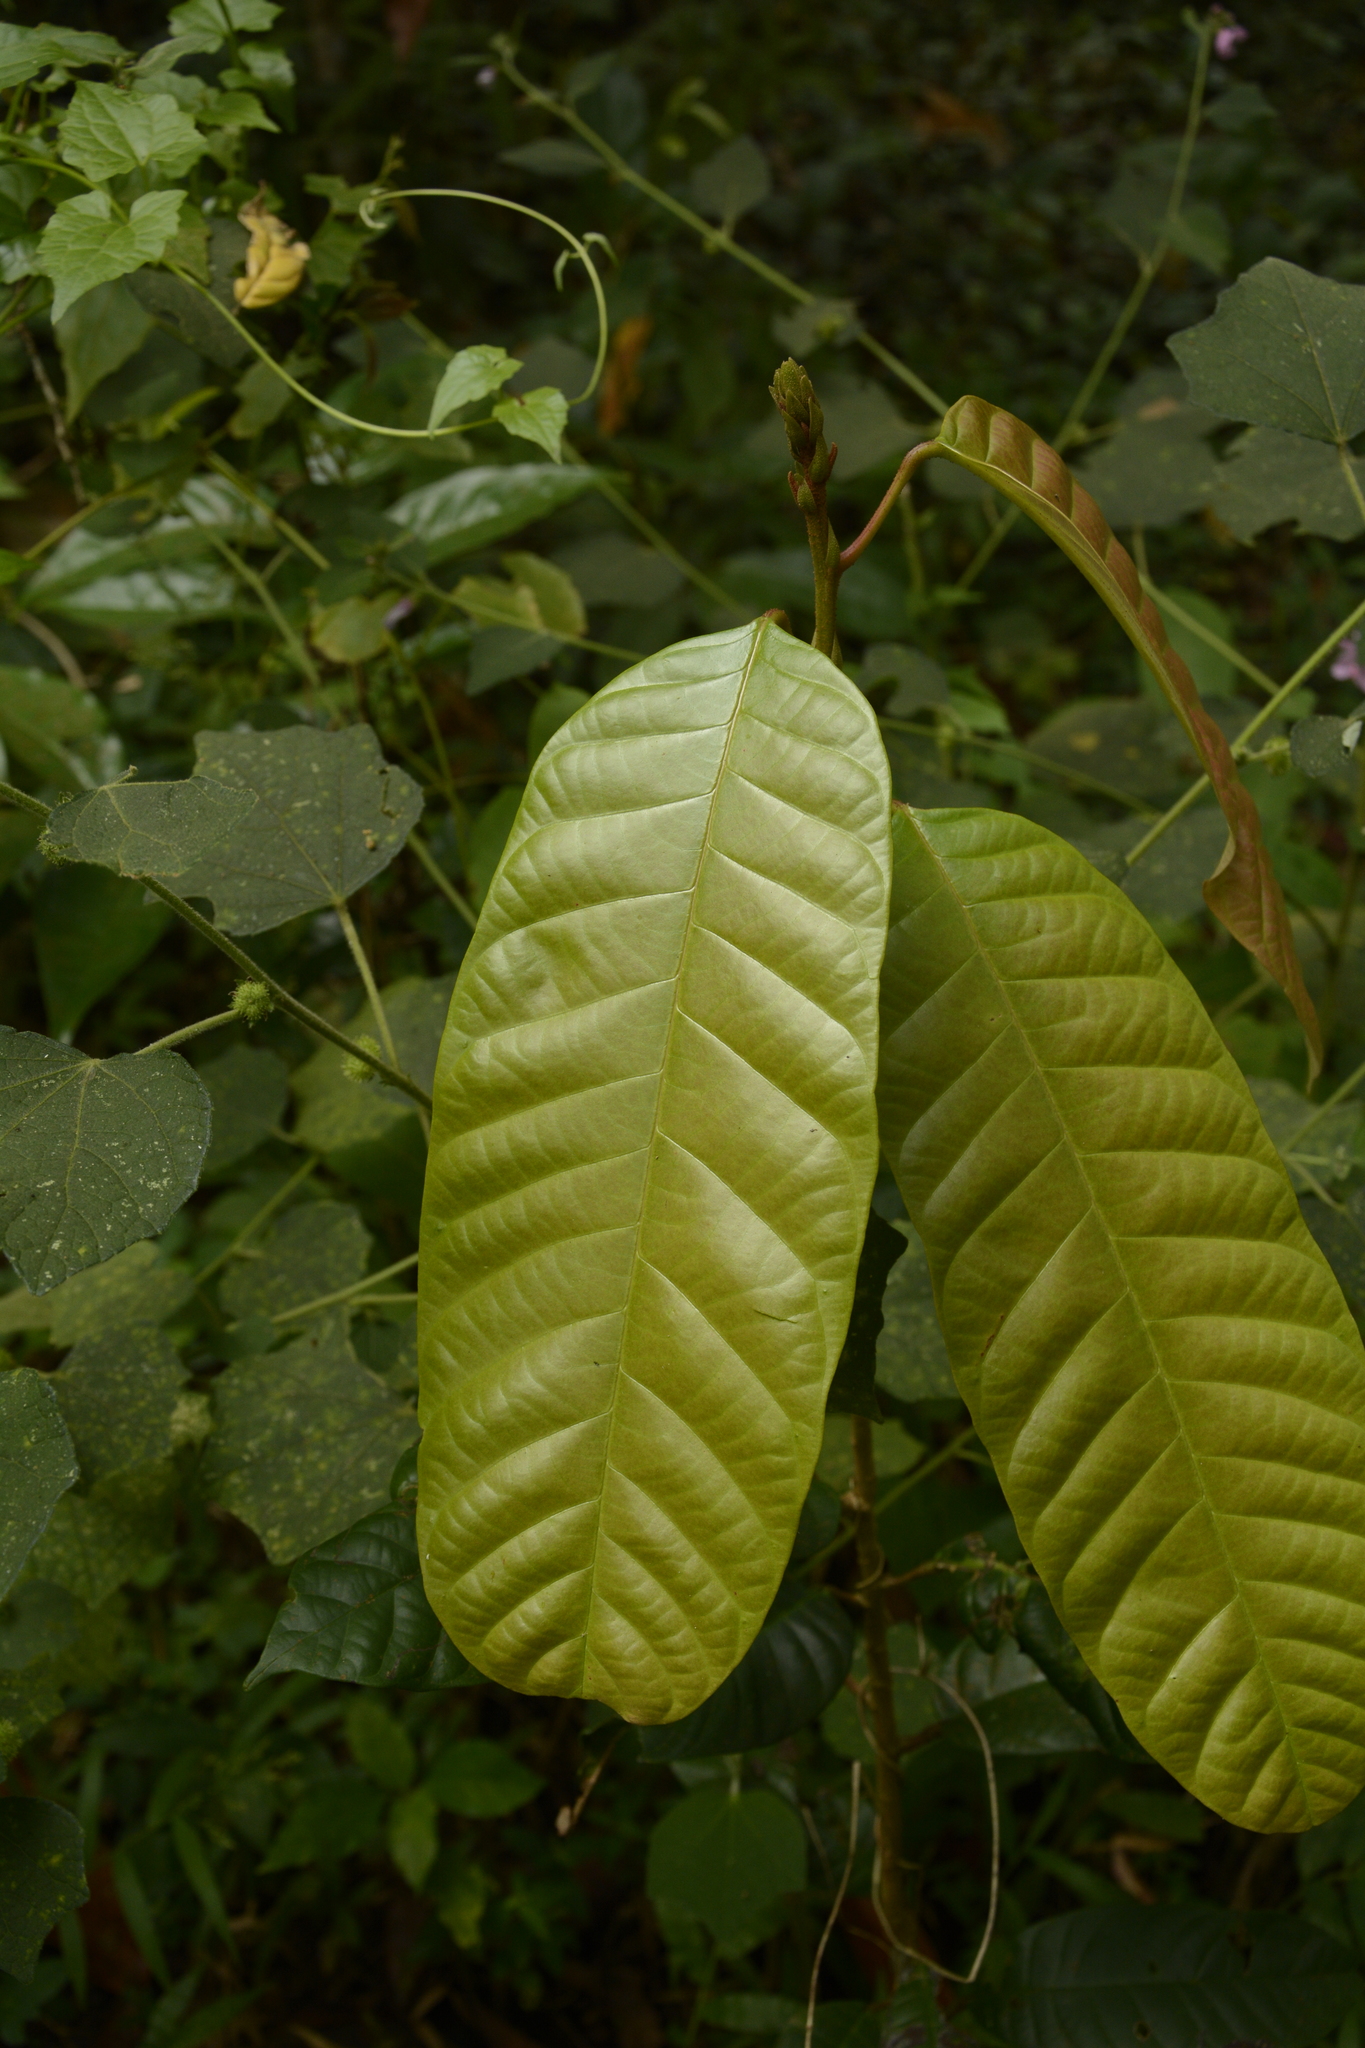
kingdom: Plantae
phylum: Tracheophyta
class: Magnoliopsida
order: Malvales
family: Dipterocarpaceae
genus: Vateria
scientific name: Vateria indica
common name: White dammar
